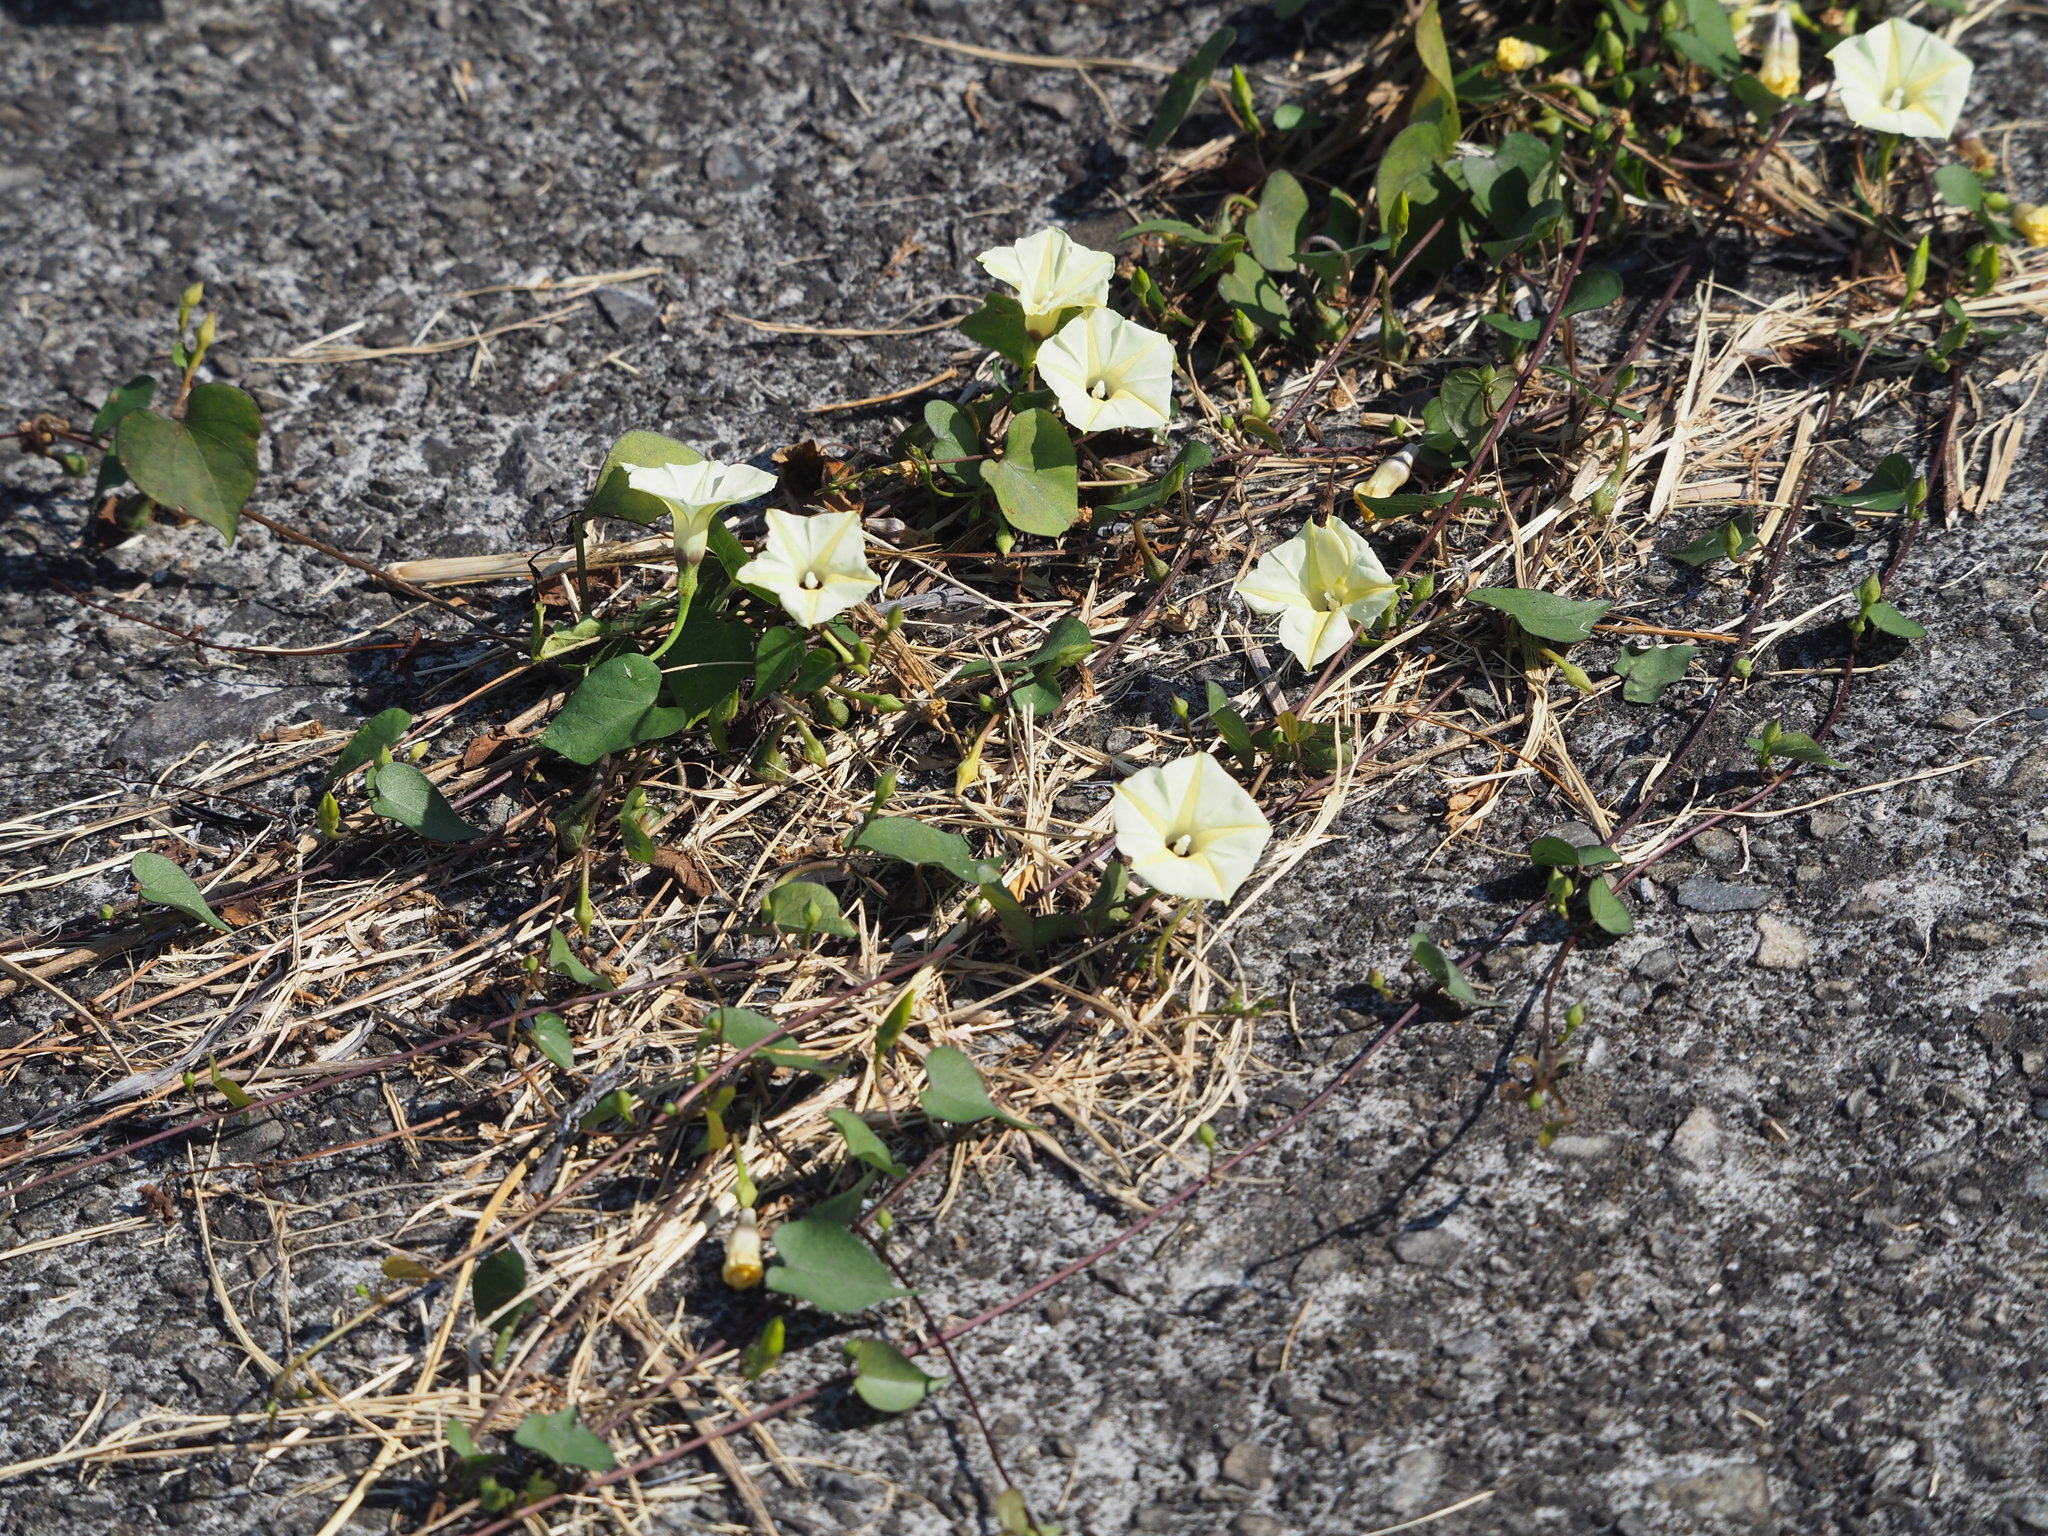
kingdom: Plantae
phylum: Tracheophyta
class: Magnoliopsida
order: Solanales
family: Convolvulaceae
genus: Ipomoea
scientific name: Ipomoea obscura
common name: Obscure morning-glory
